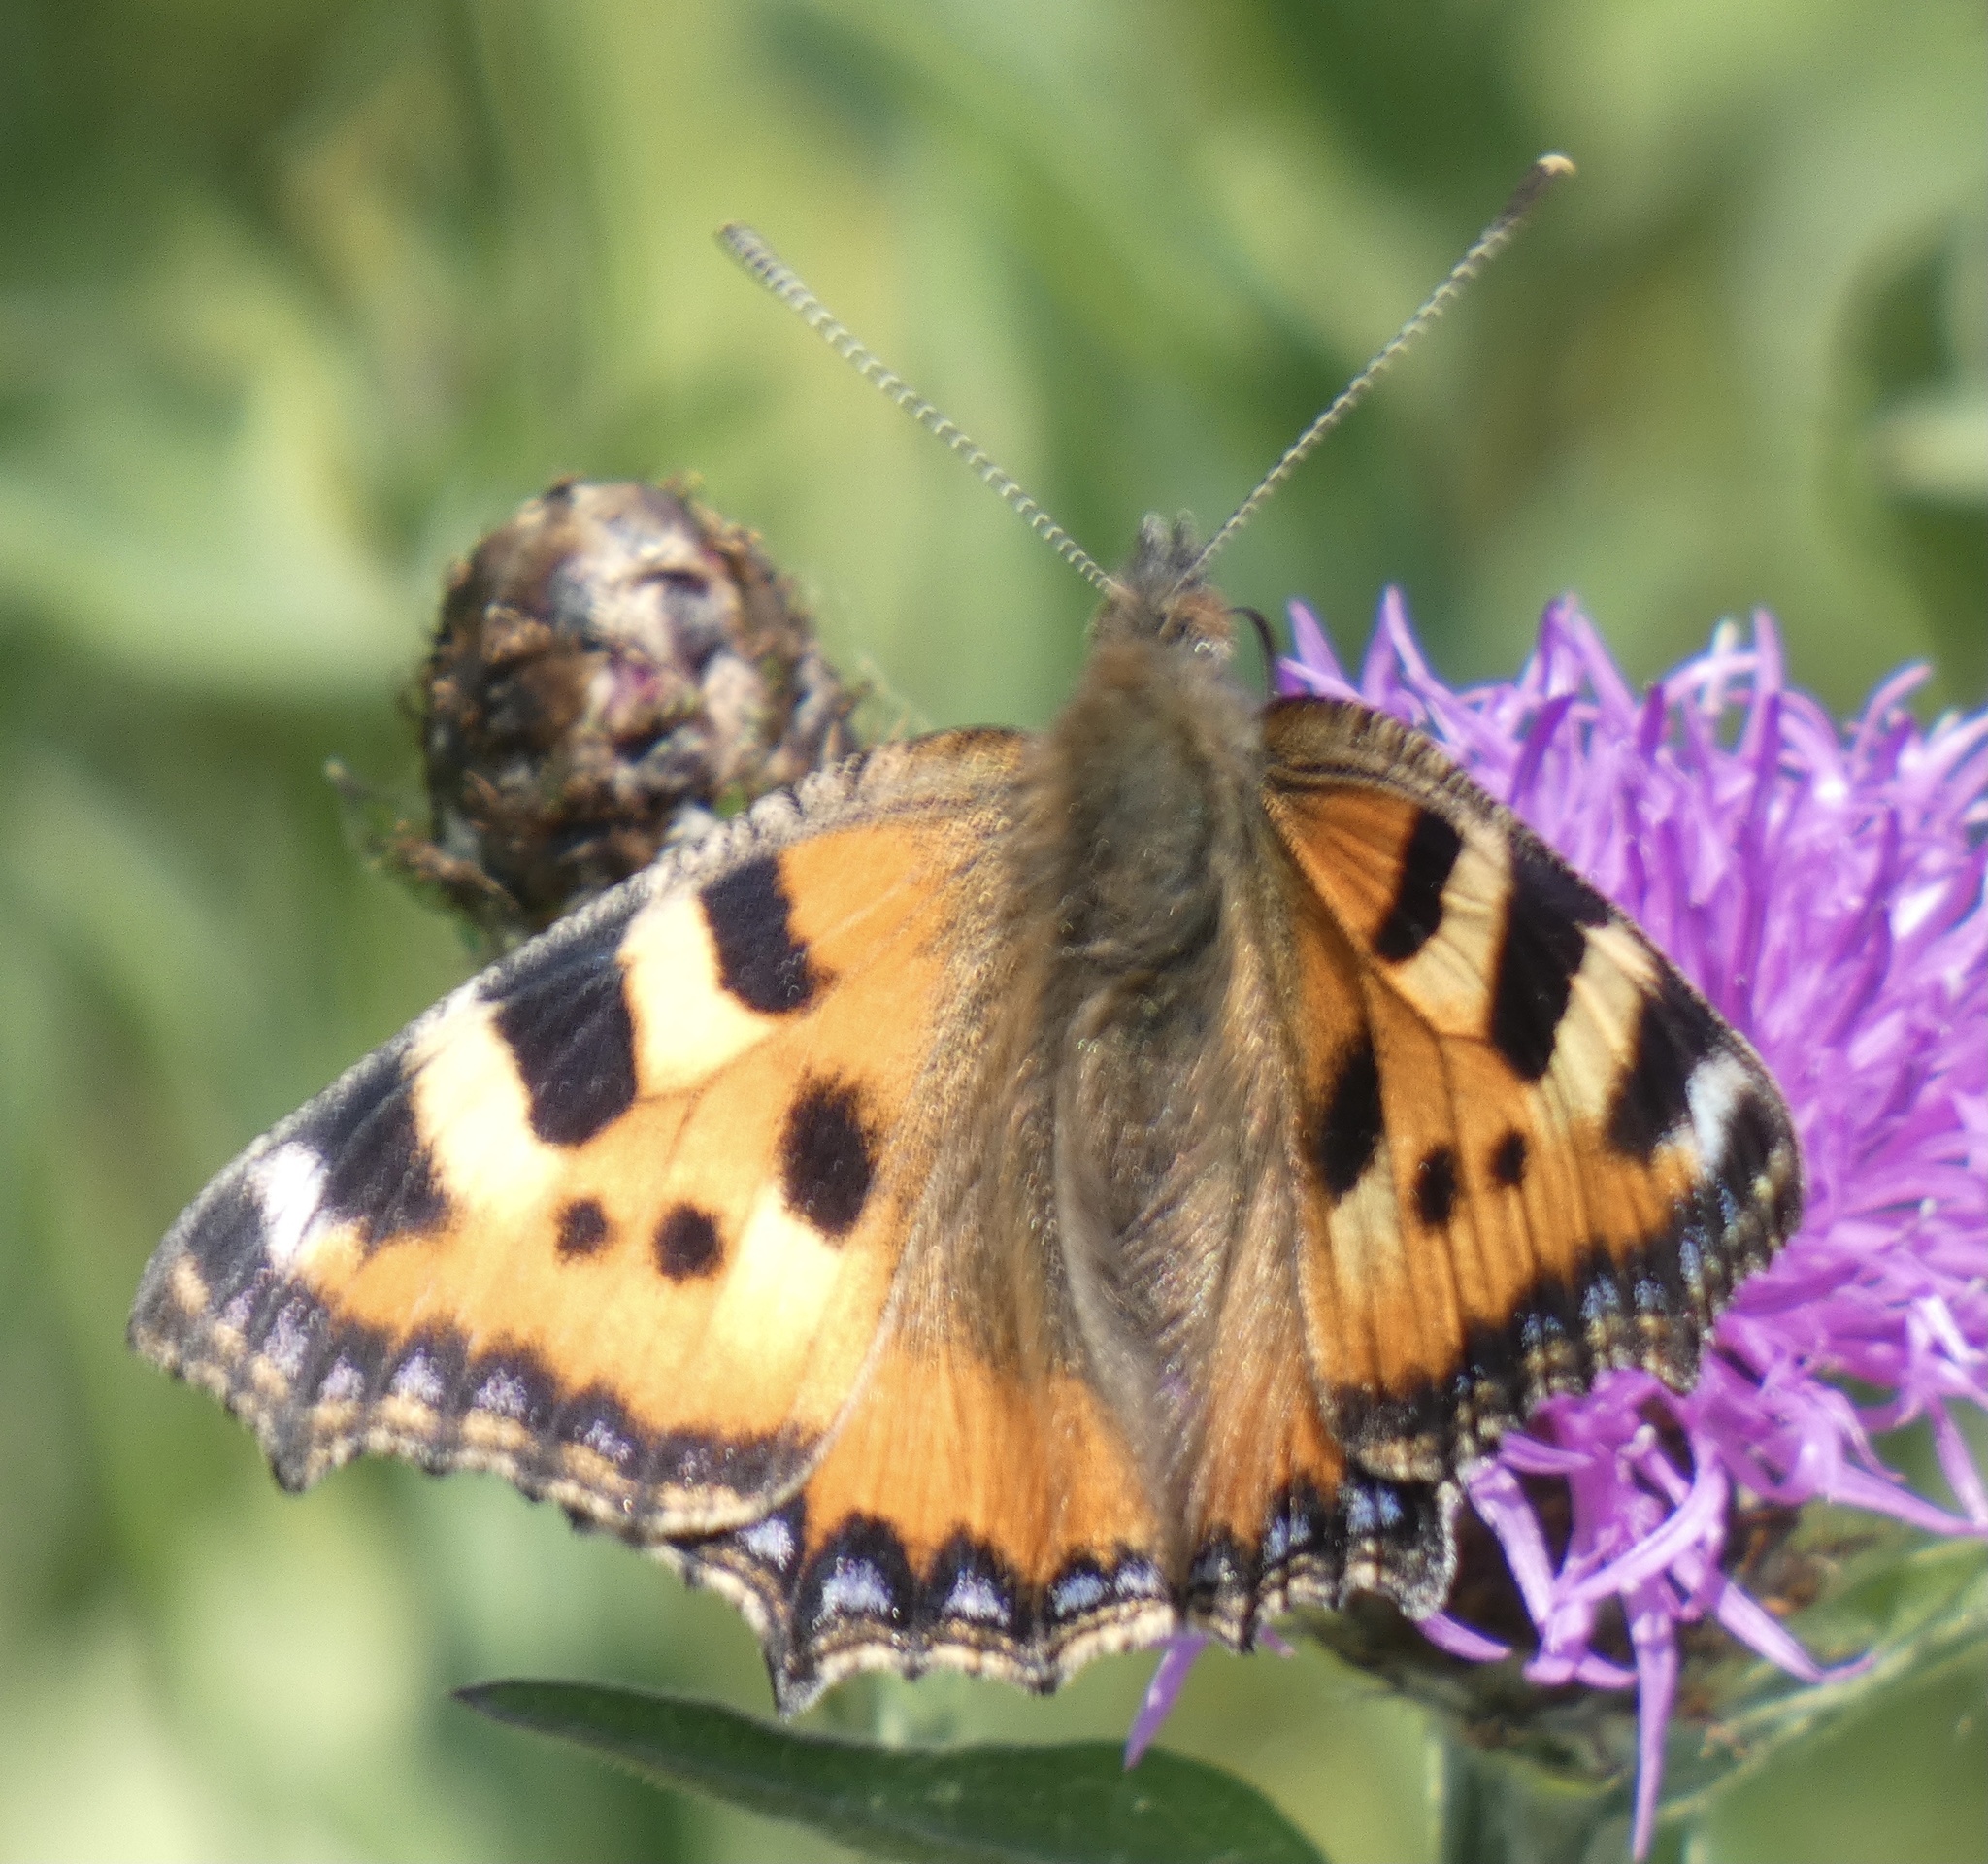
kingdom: Animalia
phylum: Arthropoda
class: Insecta
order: Lepidoptera
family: Nymphalidae
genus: Aglais
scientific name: Aglais urticae
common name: Small tortoiseshell
